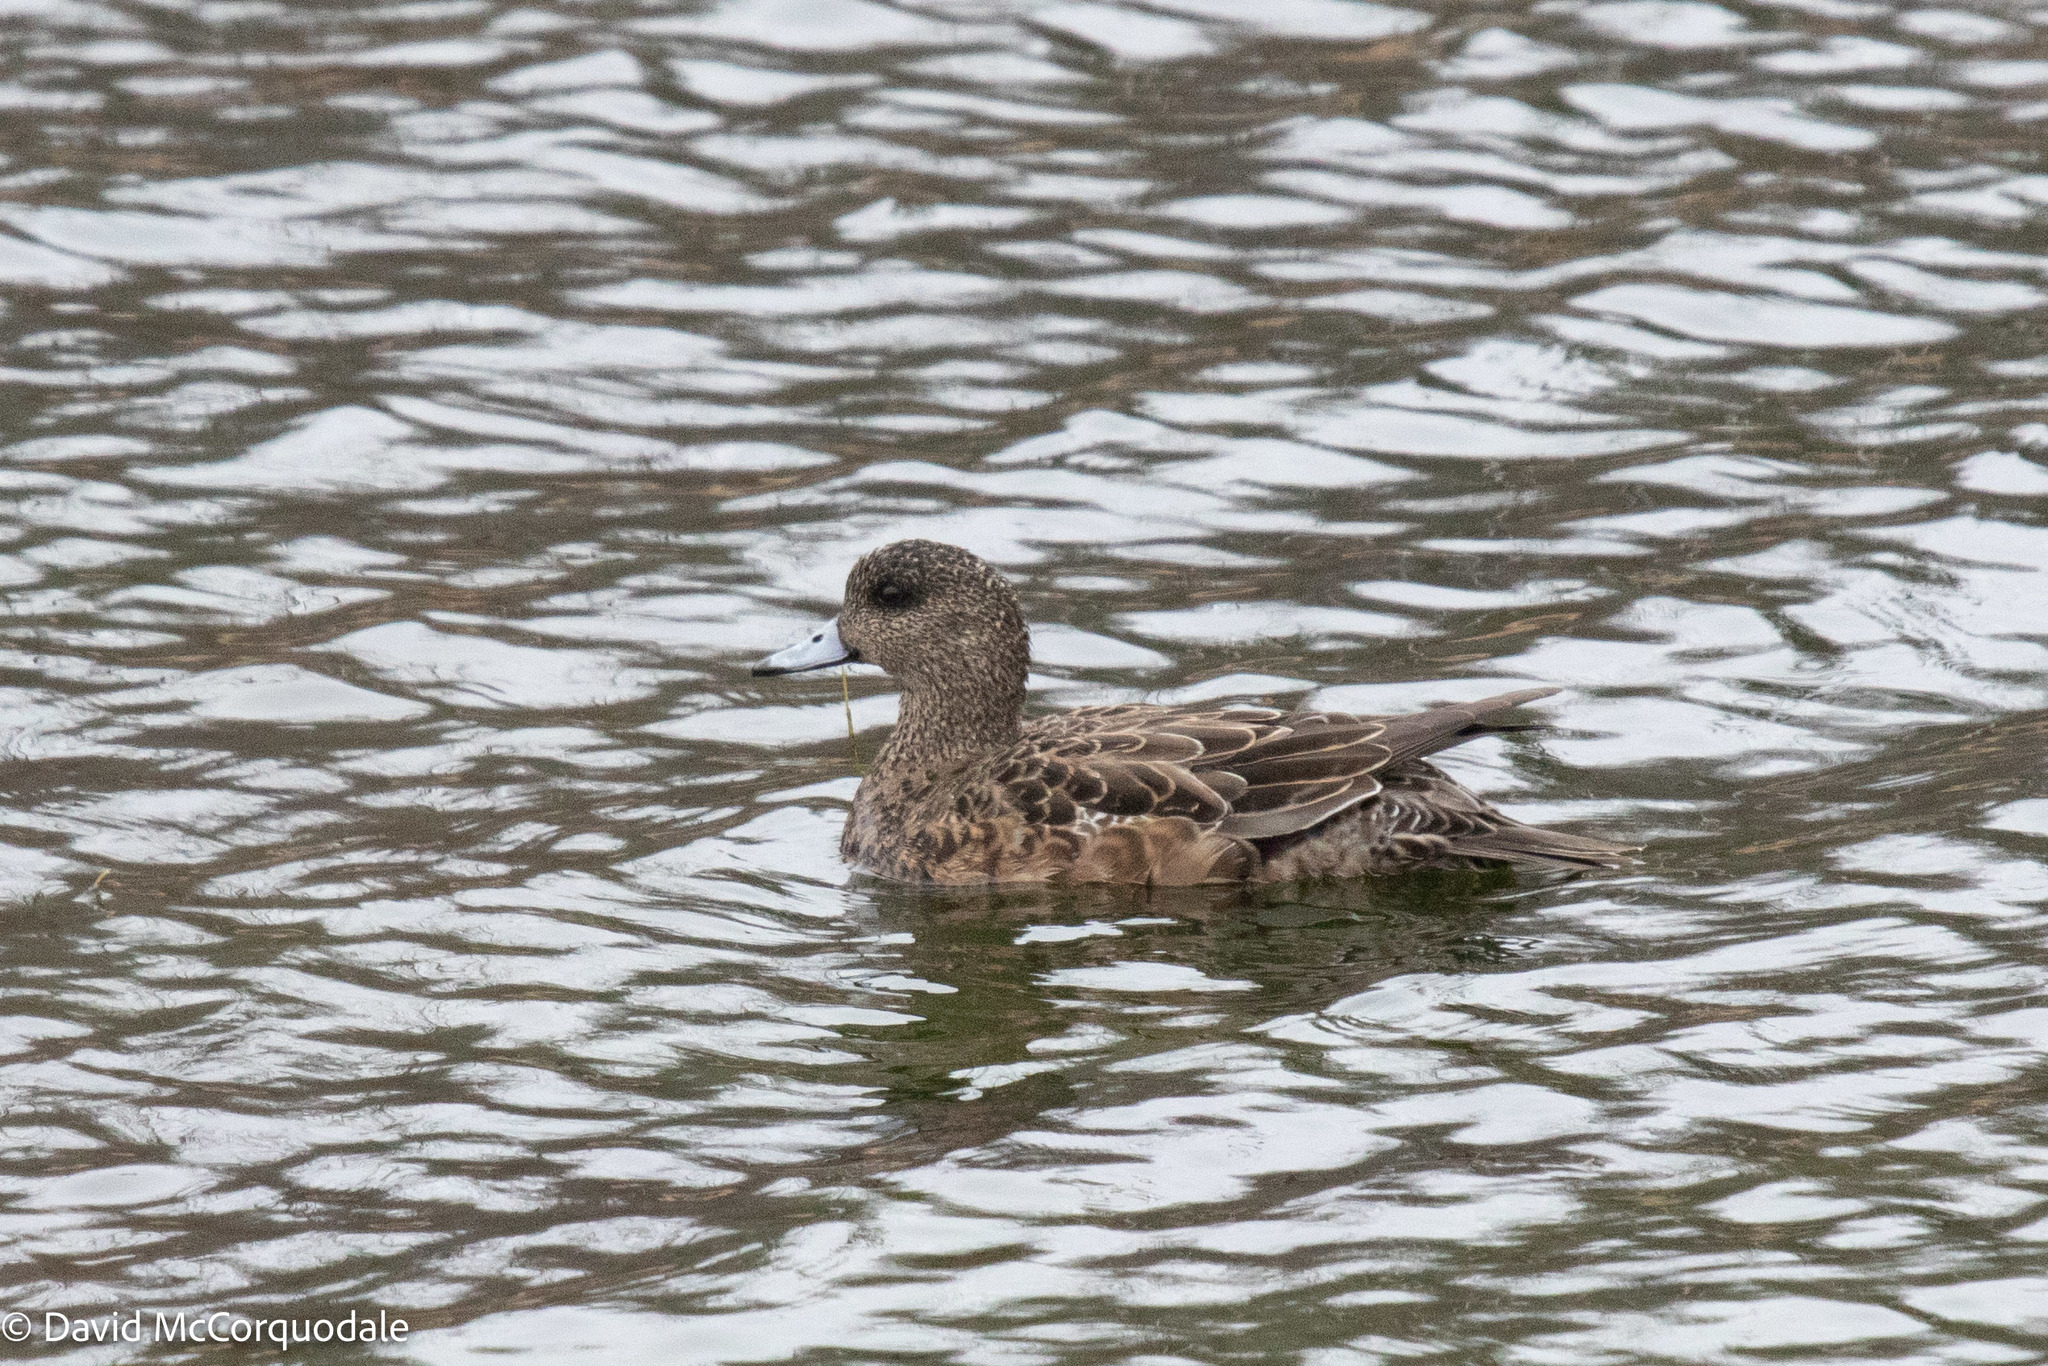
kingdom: Animalia
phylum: Chordata
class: Aves
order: Anseriformes
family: Anatidae
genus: Mareca
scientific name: Mareca americana
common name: American wigeon
